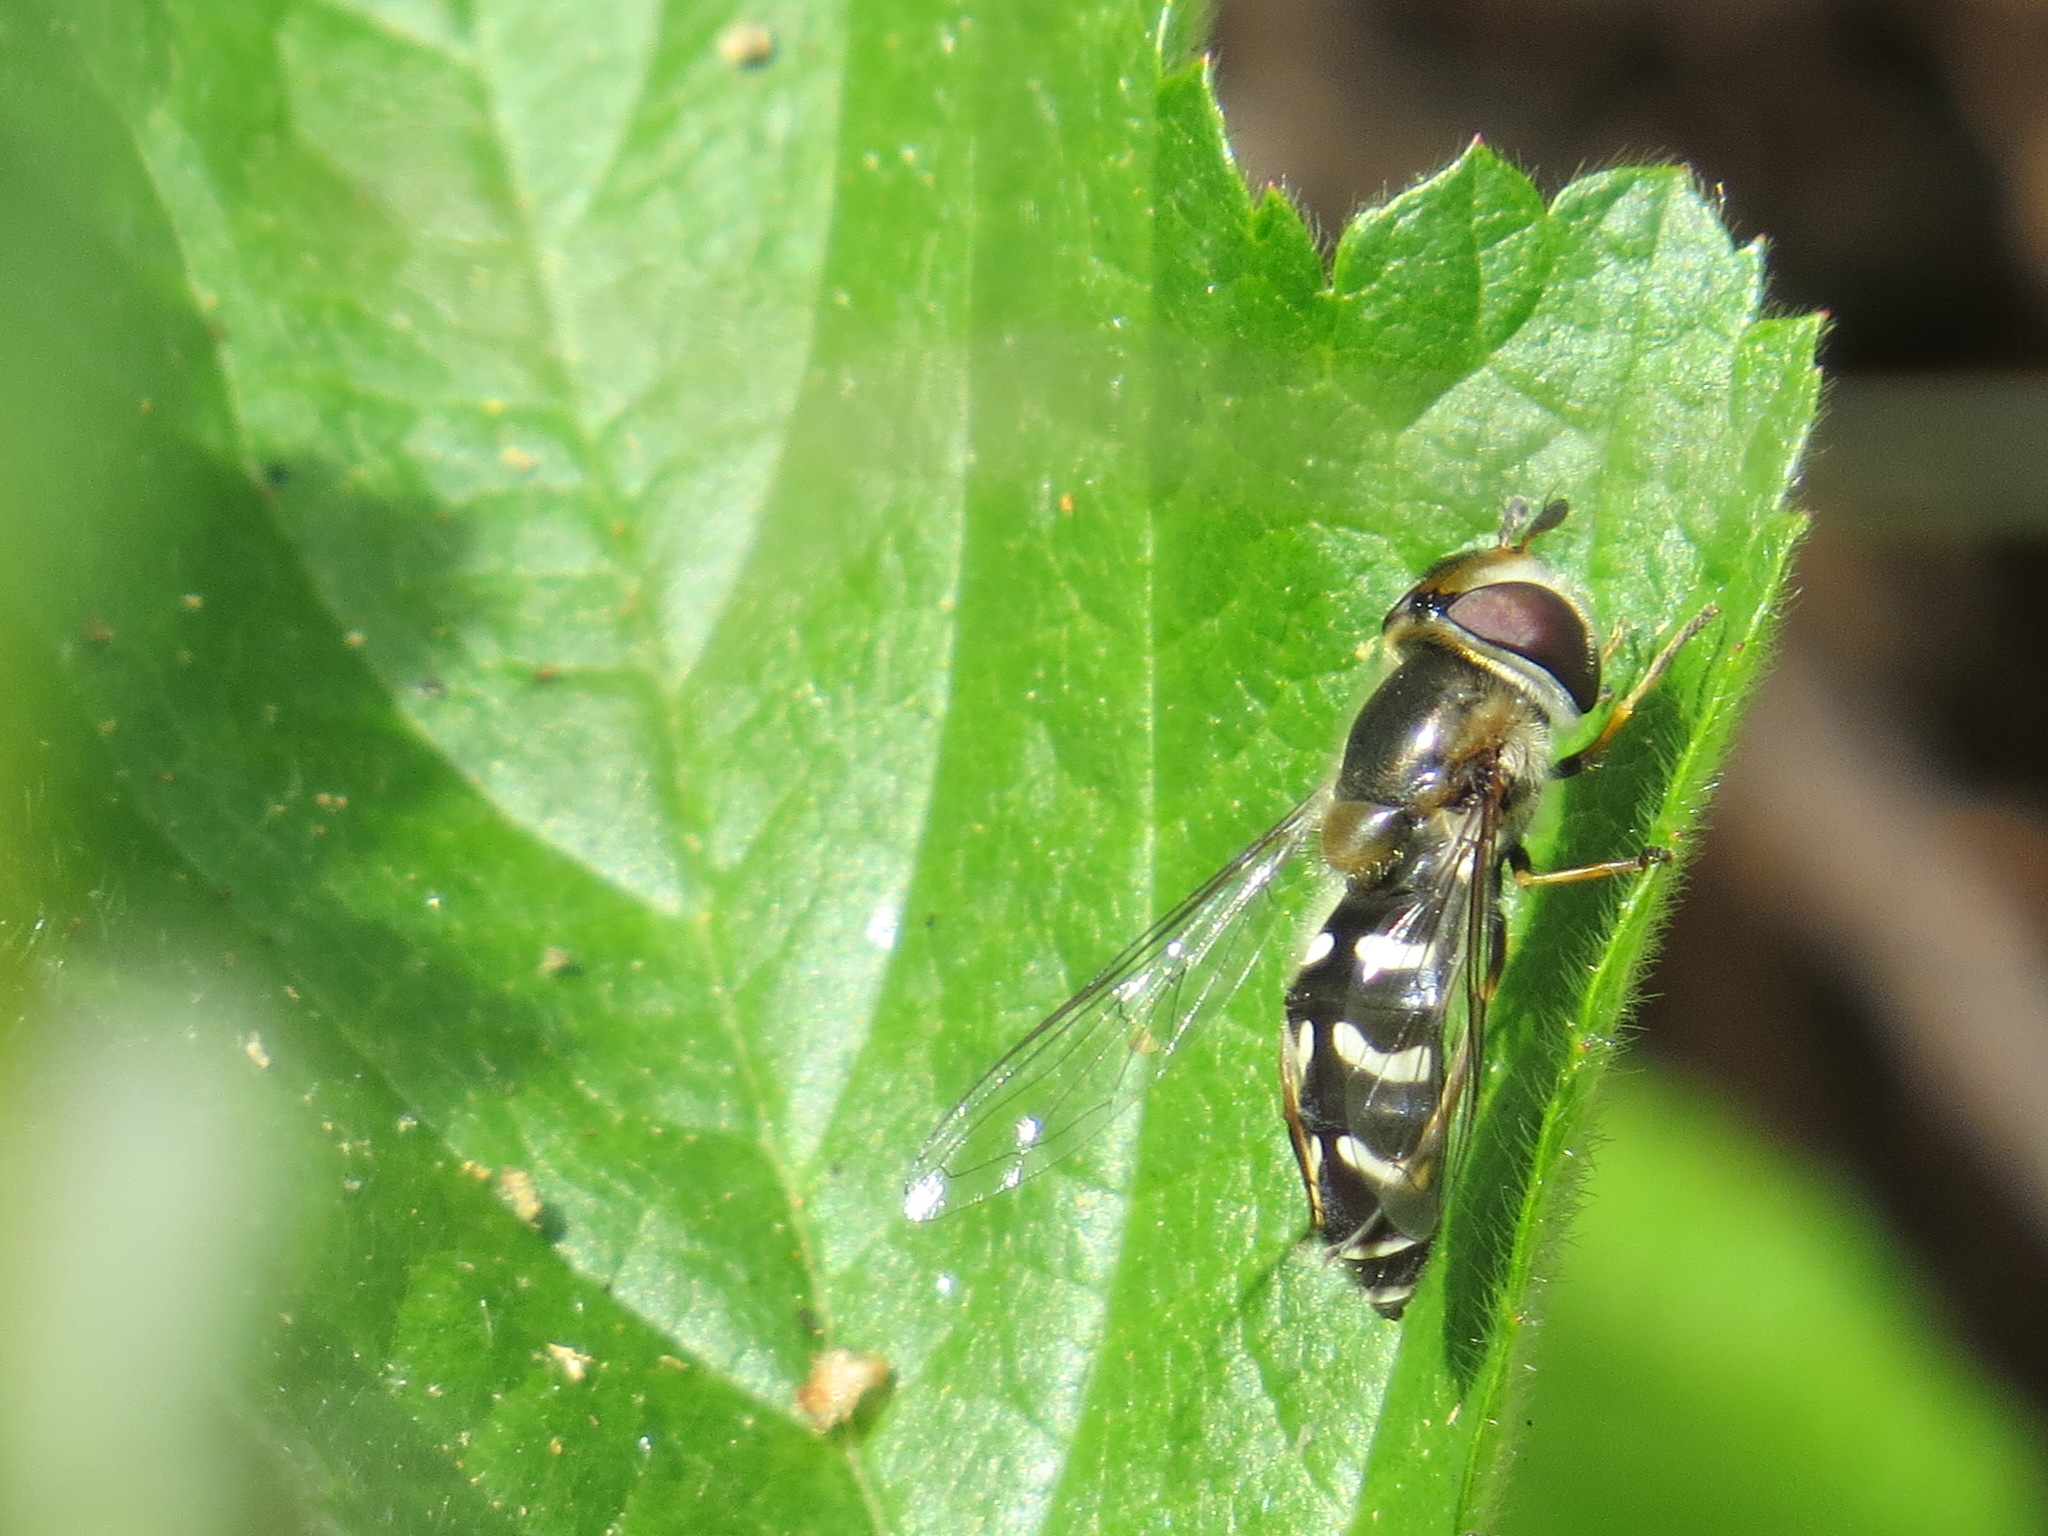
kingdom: Animalia
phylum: Arthropoda
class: Insecta
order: Diptera
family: Syrphidae
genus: Scaeva
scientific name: Scaeva affinis
